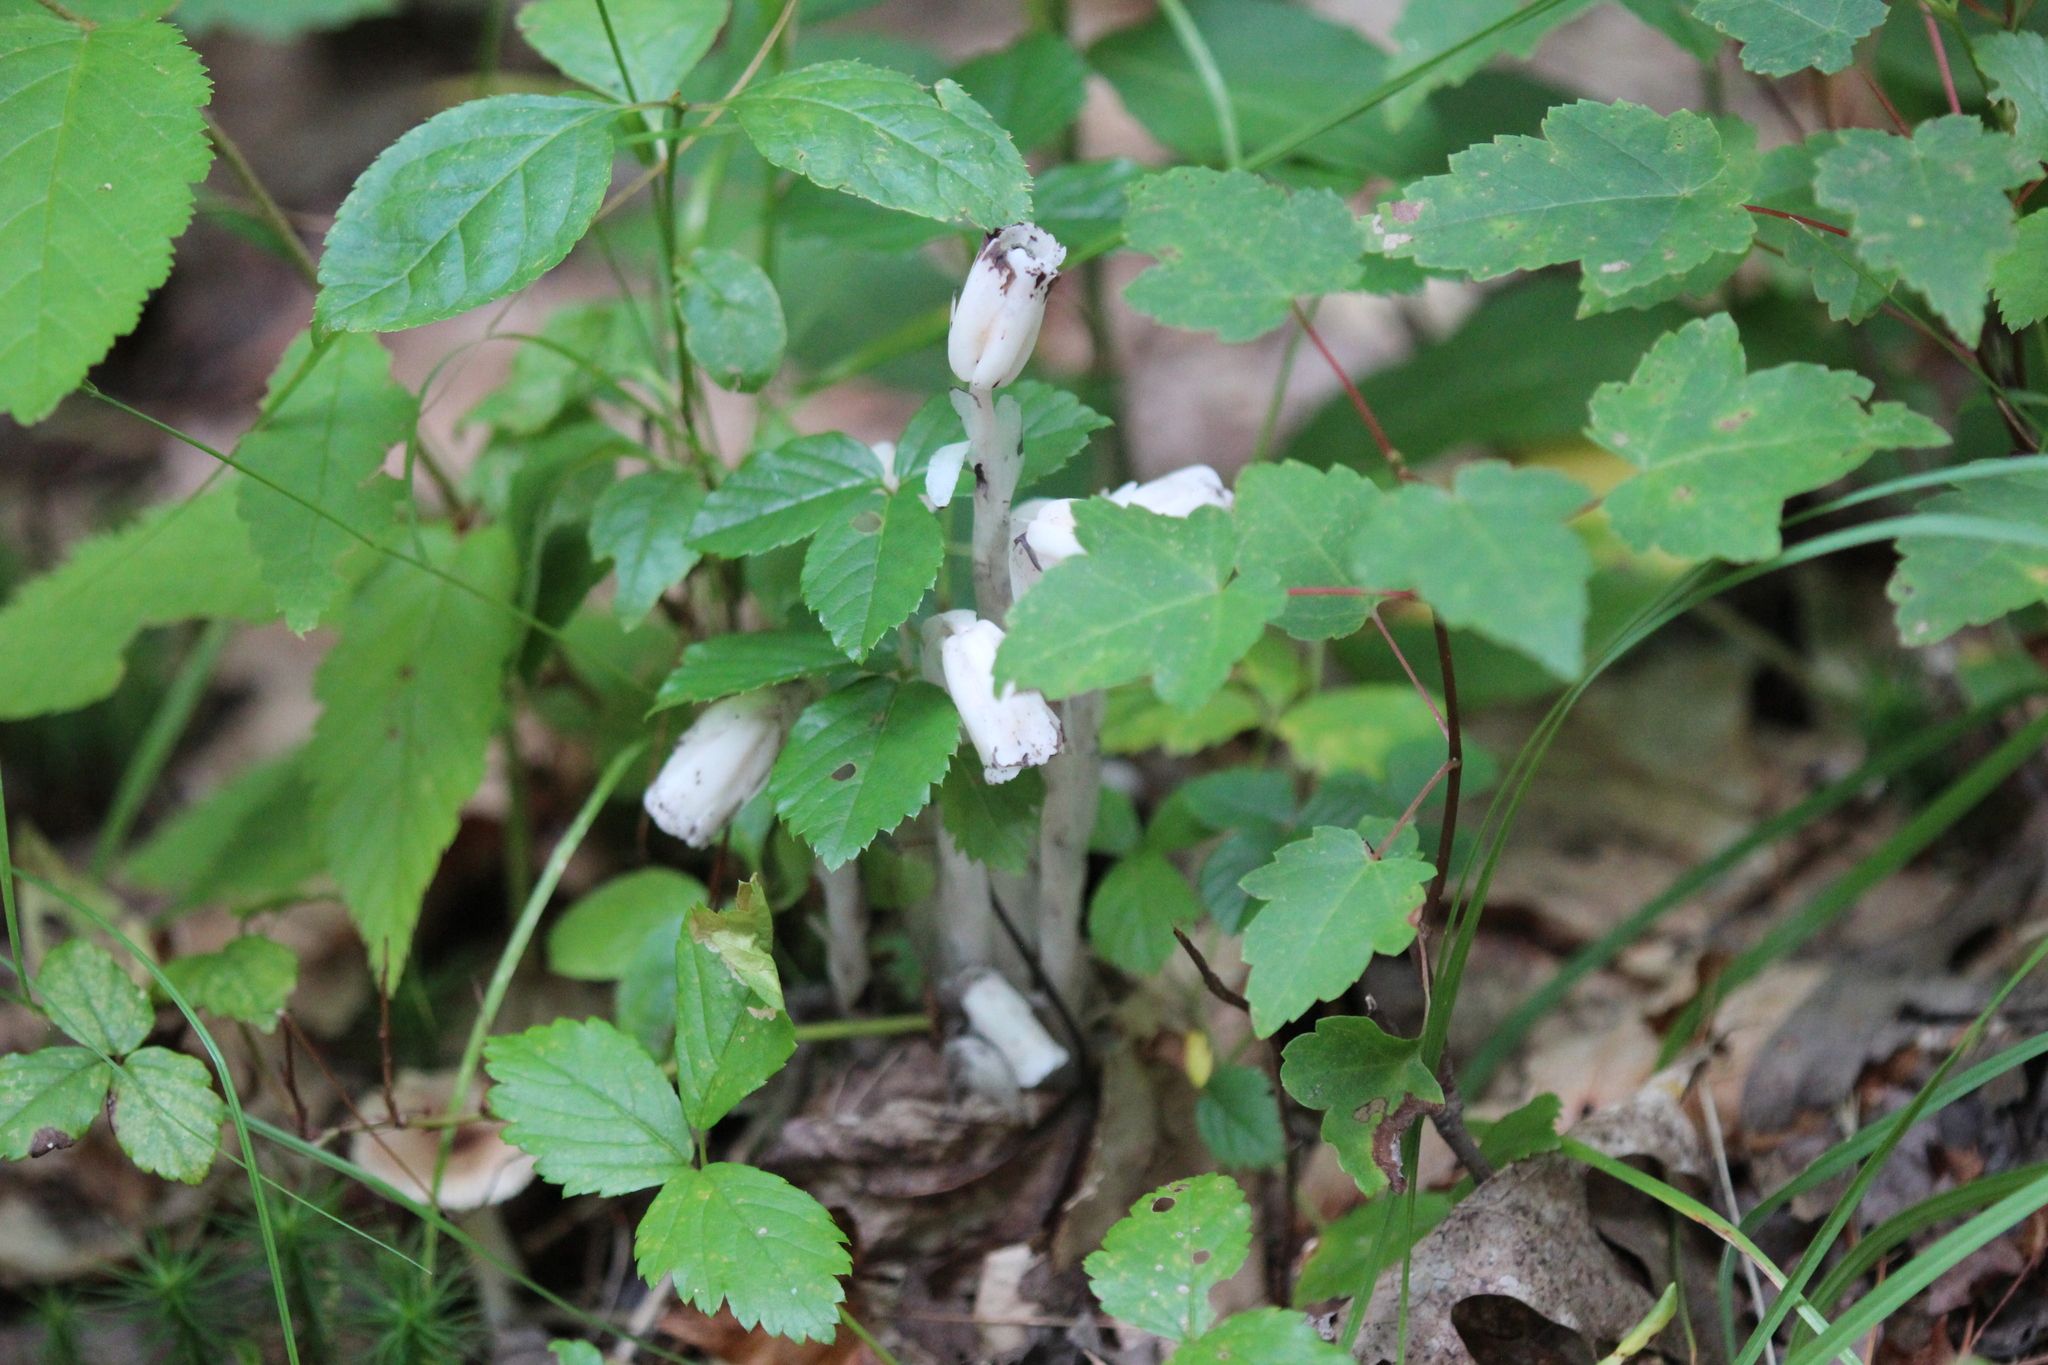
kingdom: Plantae
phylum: Tracheophyta
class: Magnoliopsida
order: Ericales
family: Ericaceae
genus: Monotropa
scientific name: Monotropa uniflora
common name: Convulsion root
